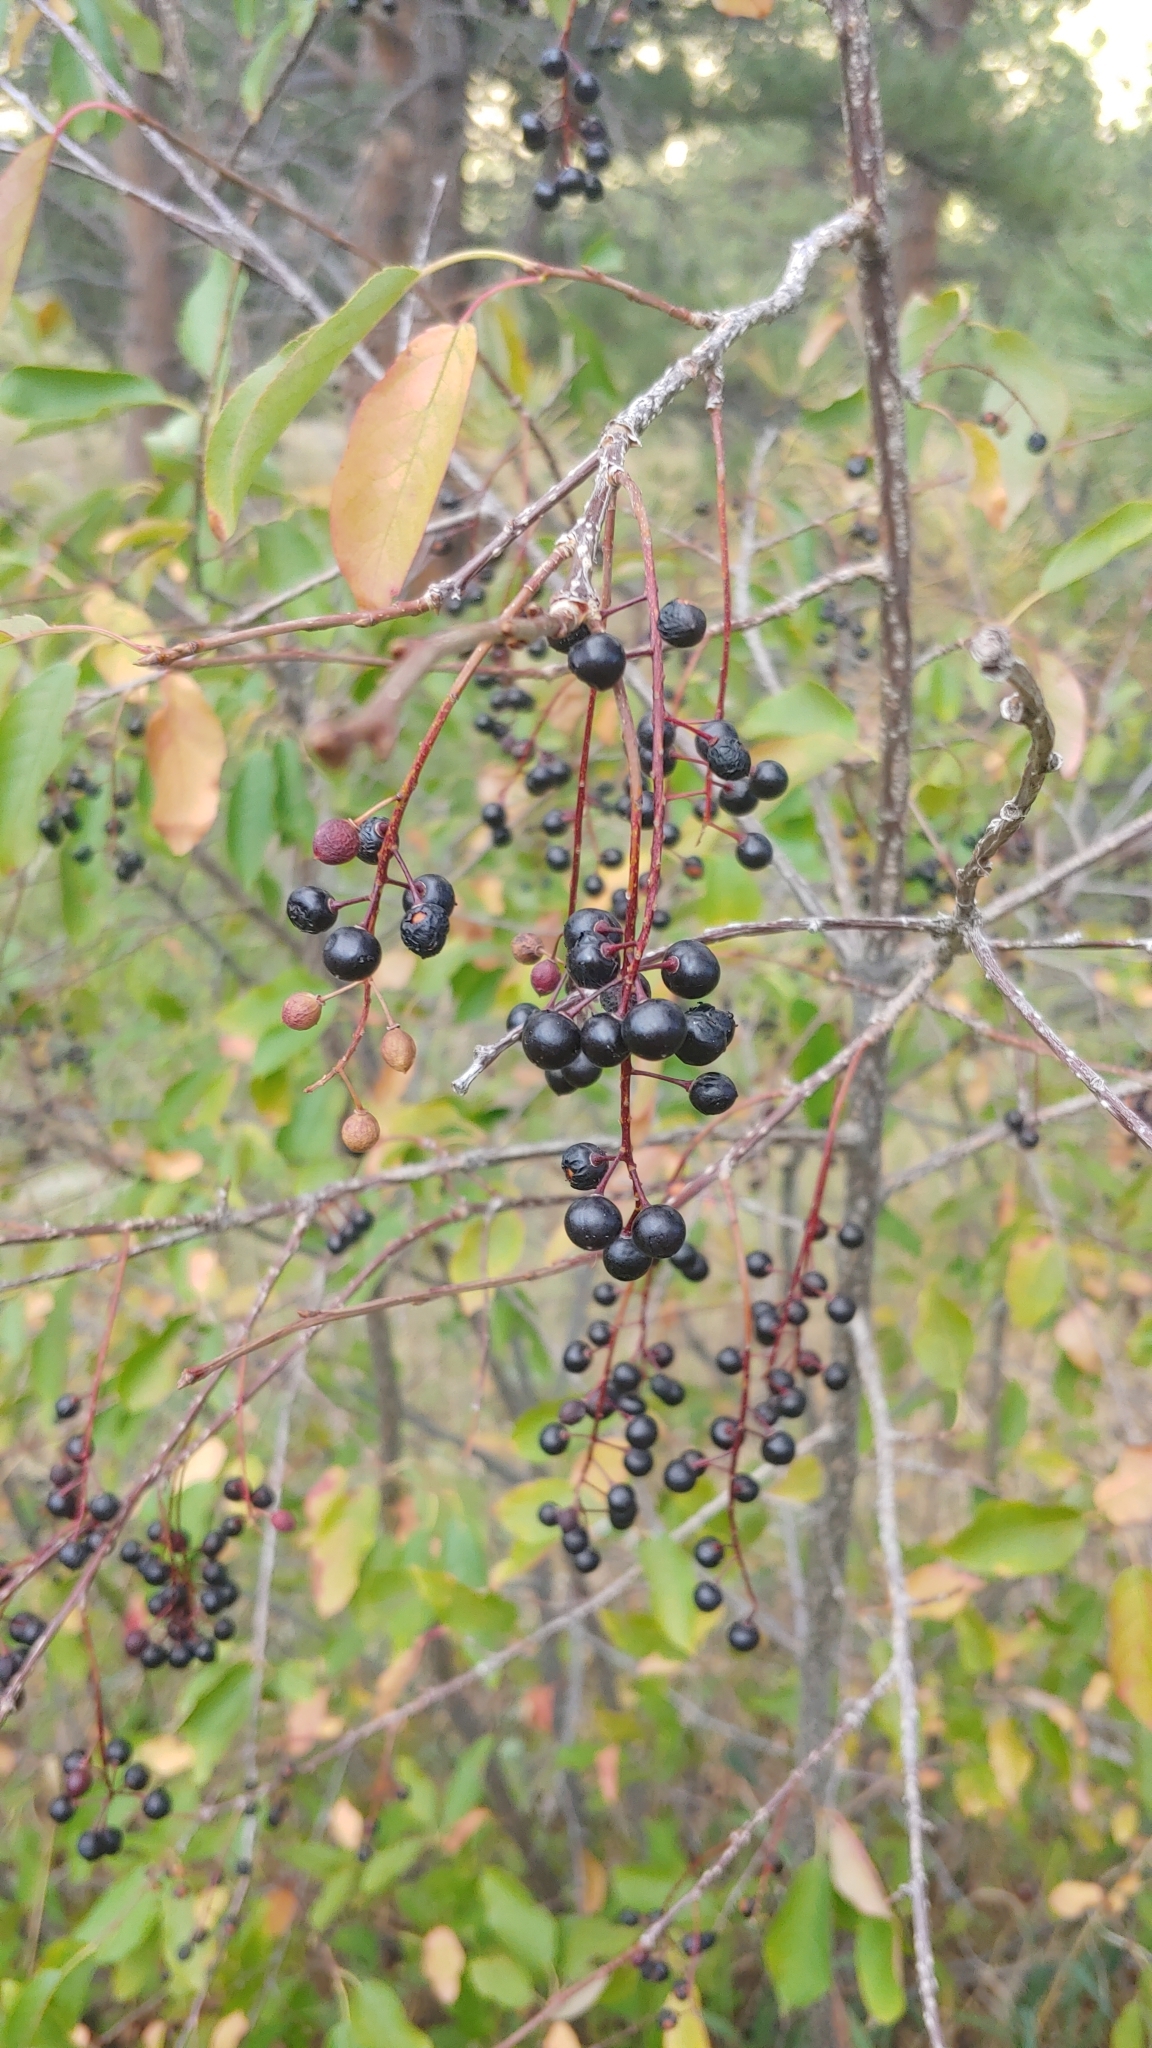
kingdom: Plantae
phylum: Tracheophyta
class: Magnoliopsida
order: Rosales
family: Rosaceae
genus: Prunus
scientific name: Prunus virginiana
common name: Chokecherry
